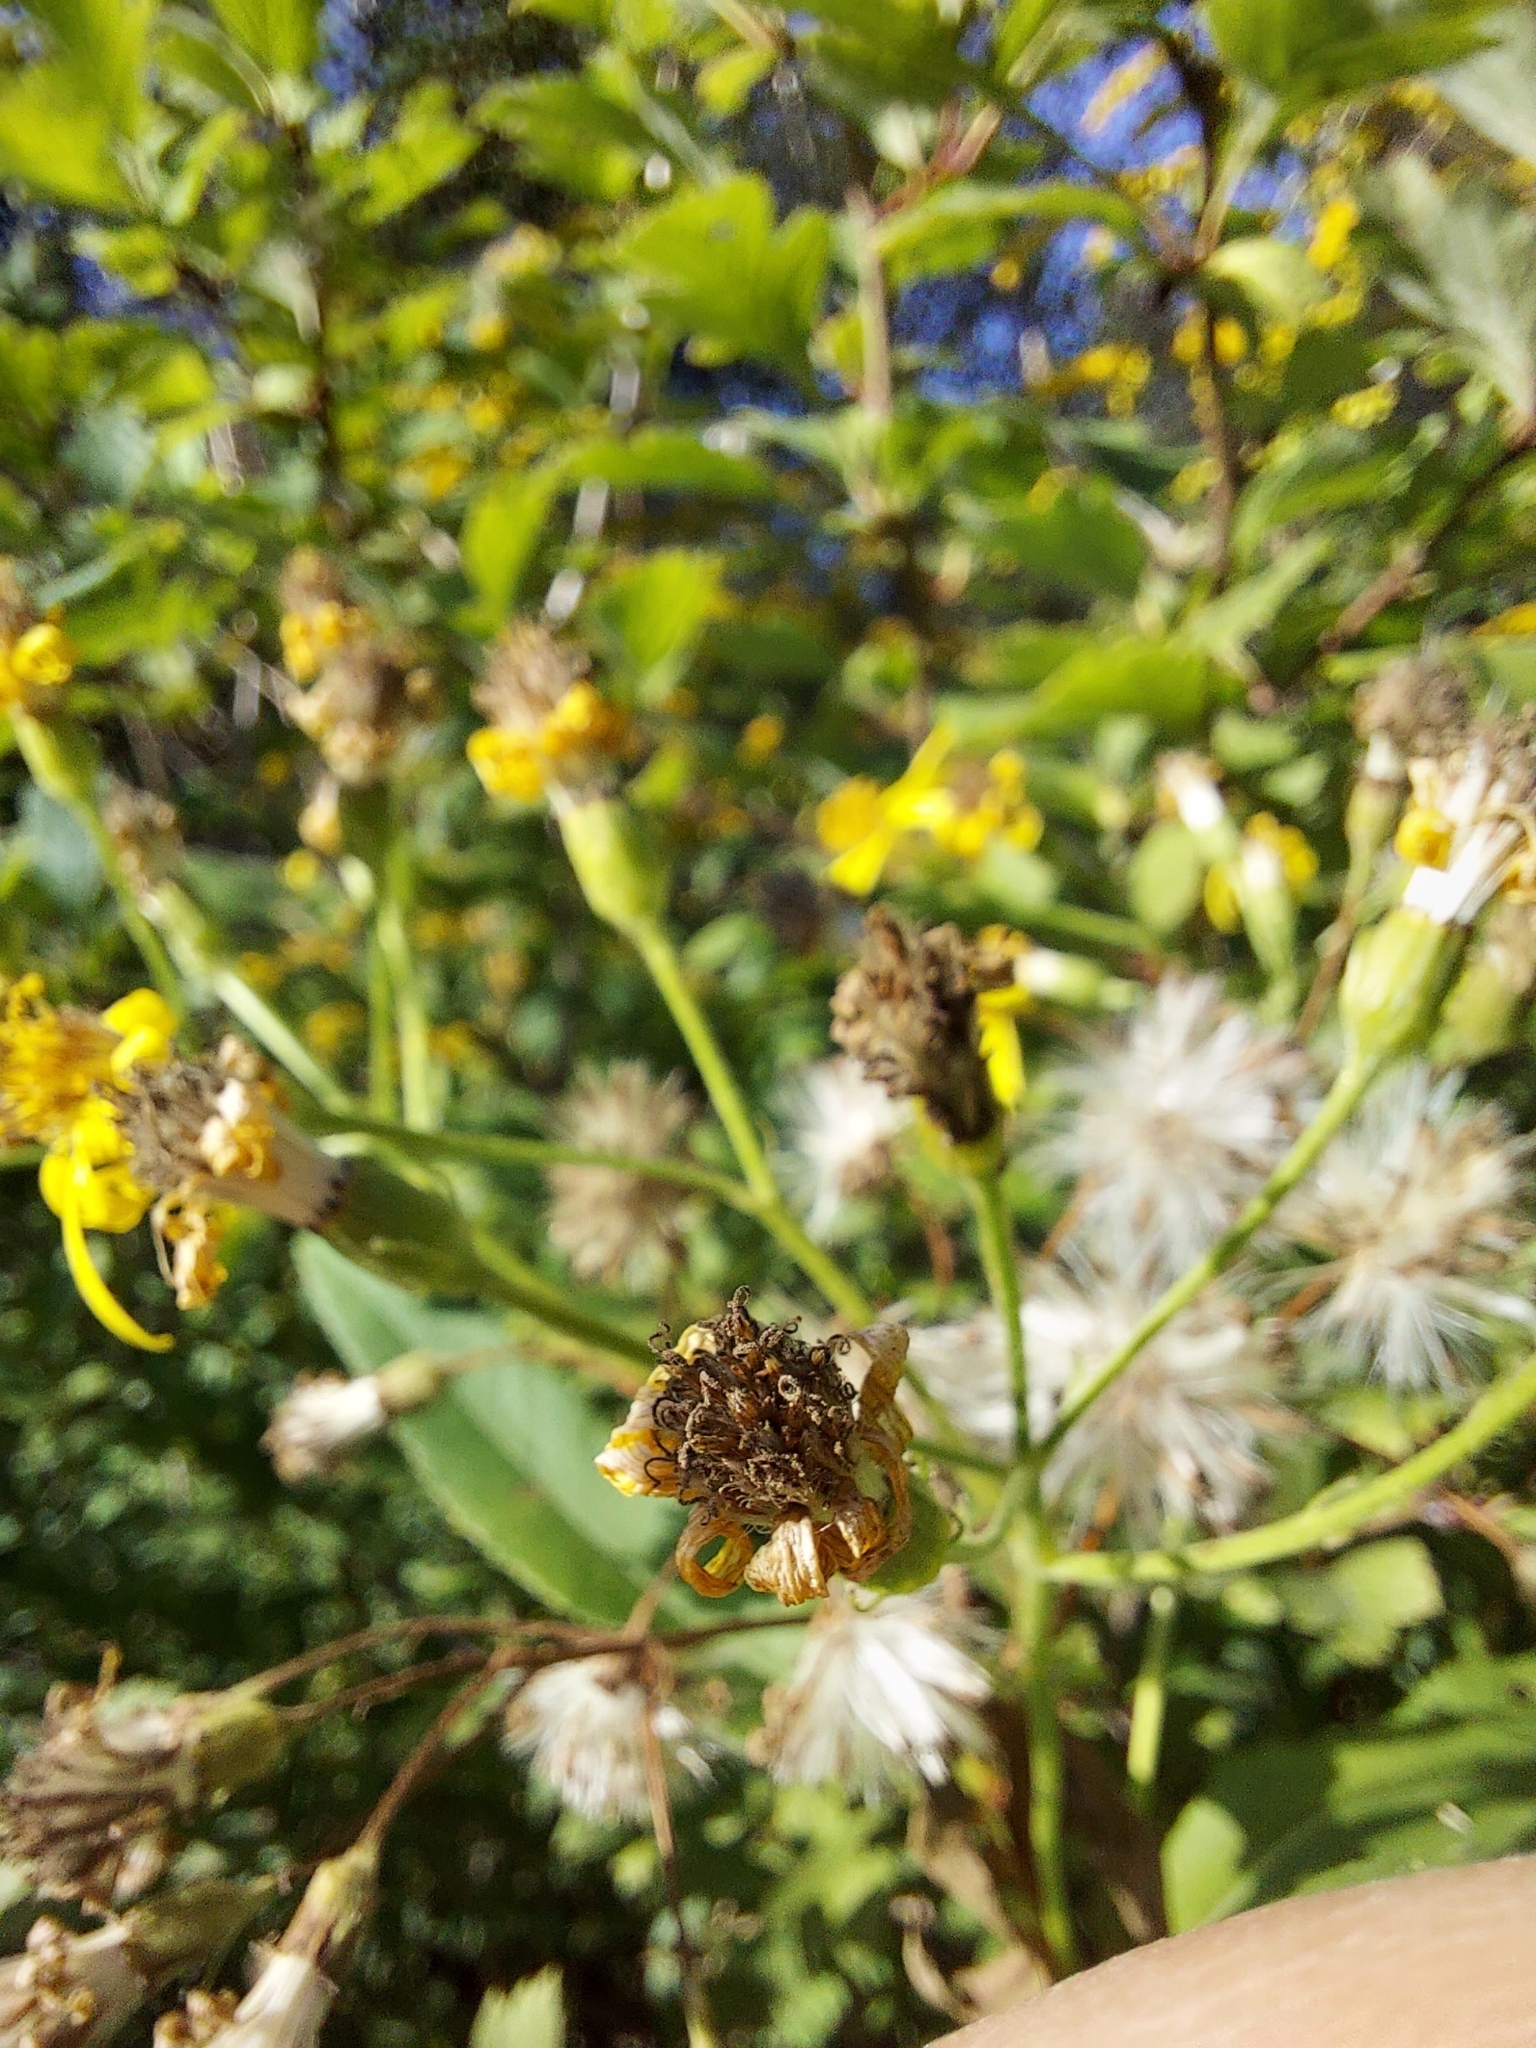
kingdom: Plantae
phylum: Tracheophyta
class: Magnoliopsida
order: Asterales
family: Asteraceae
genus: Senecio
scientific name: Senecio nemorensis
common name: Alpine ragwort
